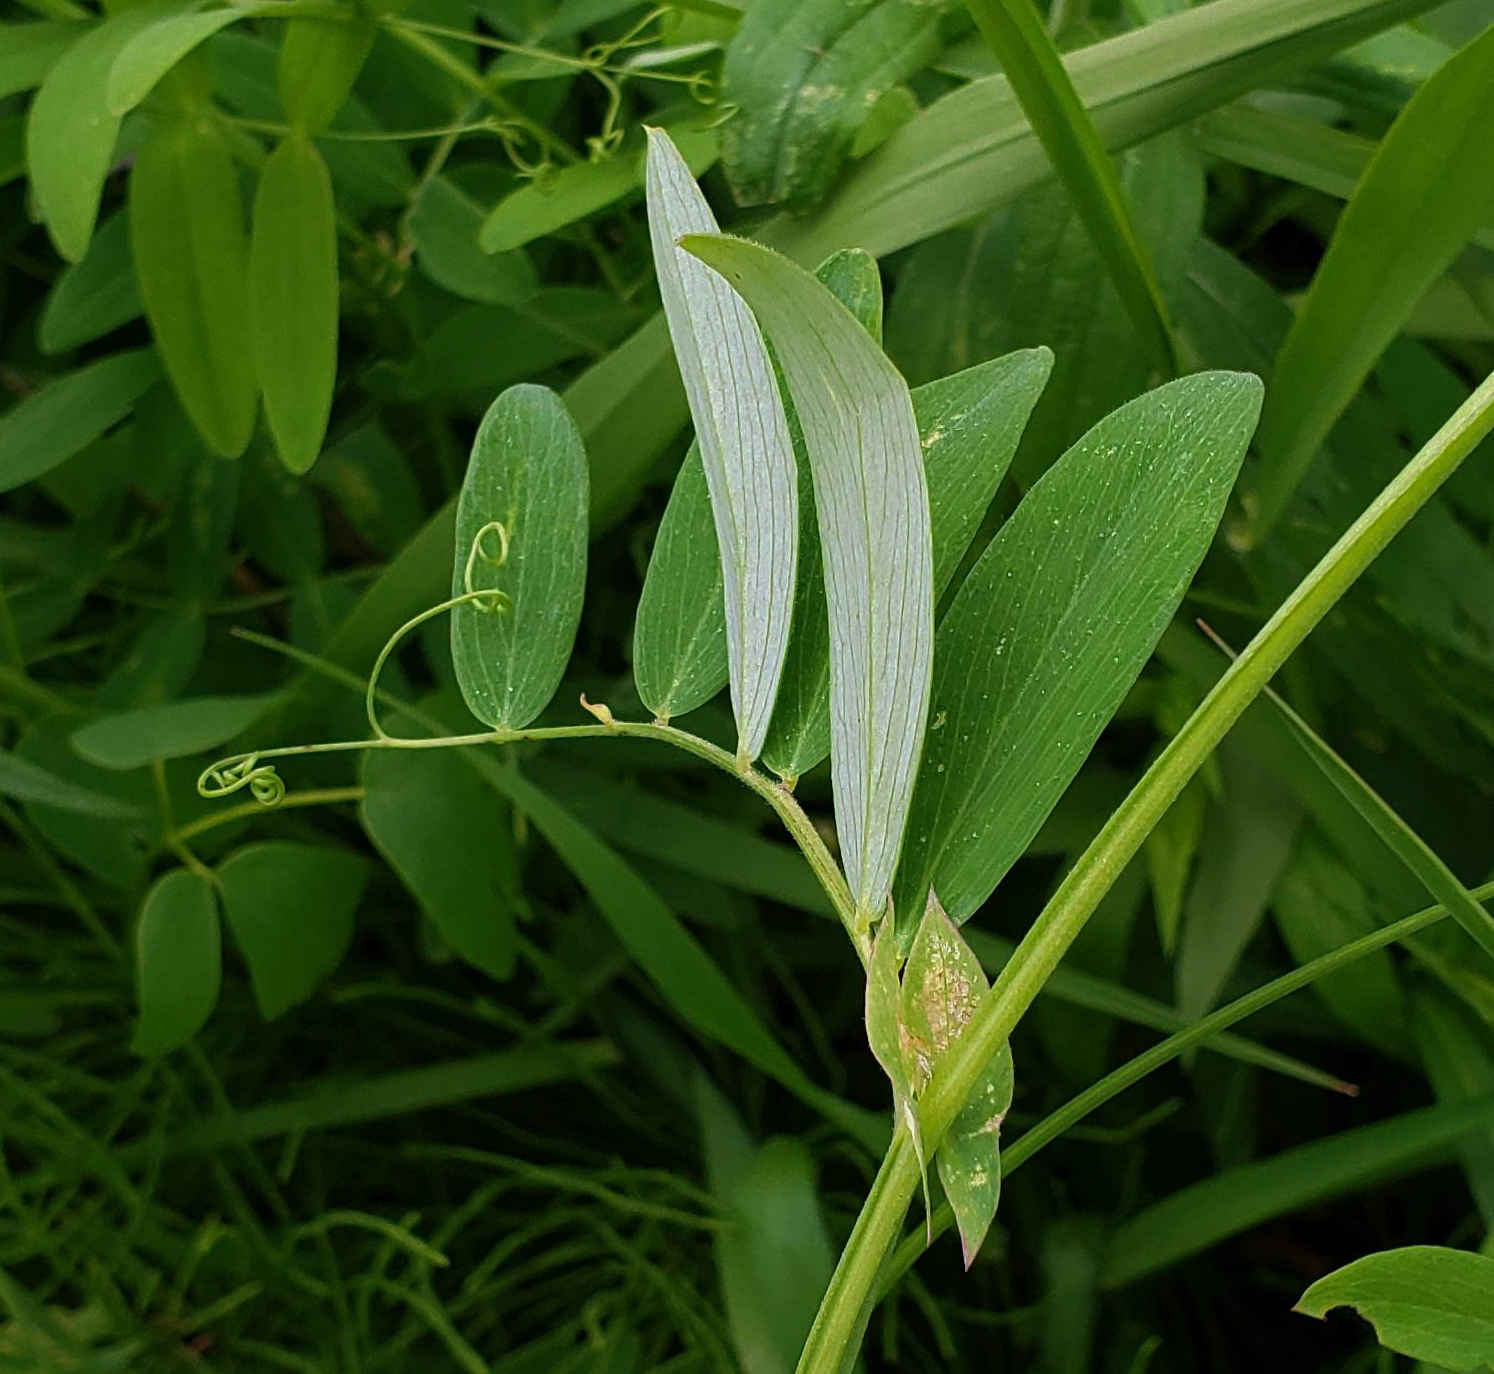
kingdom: Plantae
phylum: Tracheophyta
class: Magnoliopsida
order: Fabales
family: Fabaceae
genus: Lathyrus
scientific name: Lathyrus palustris
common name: Marsh pea
